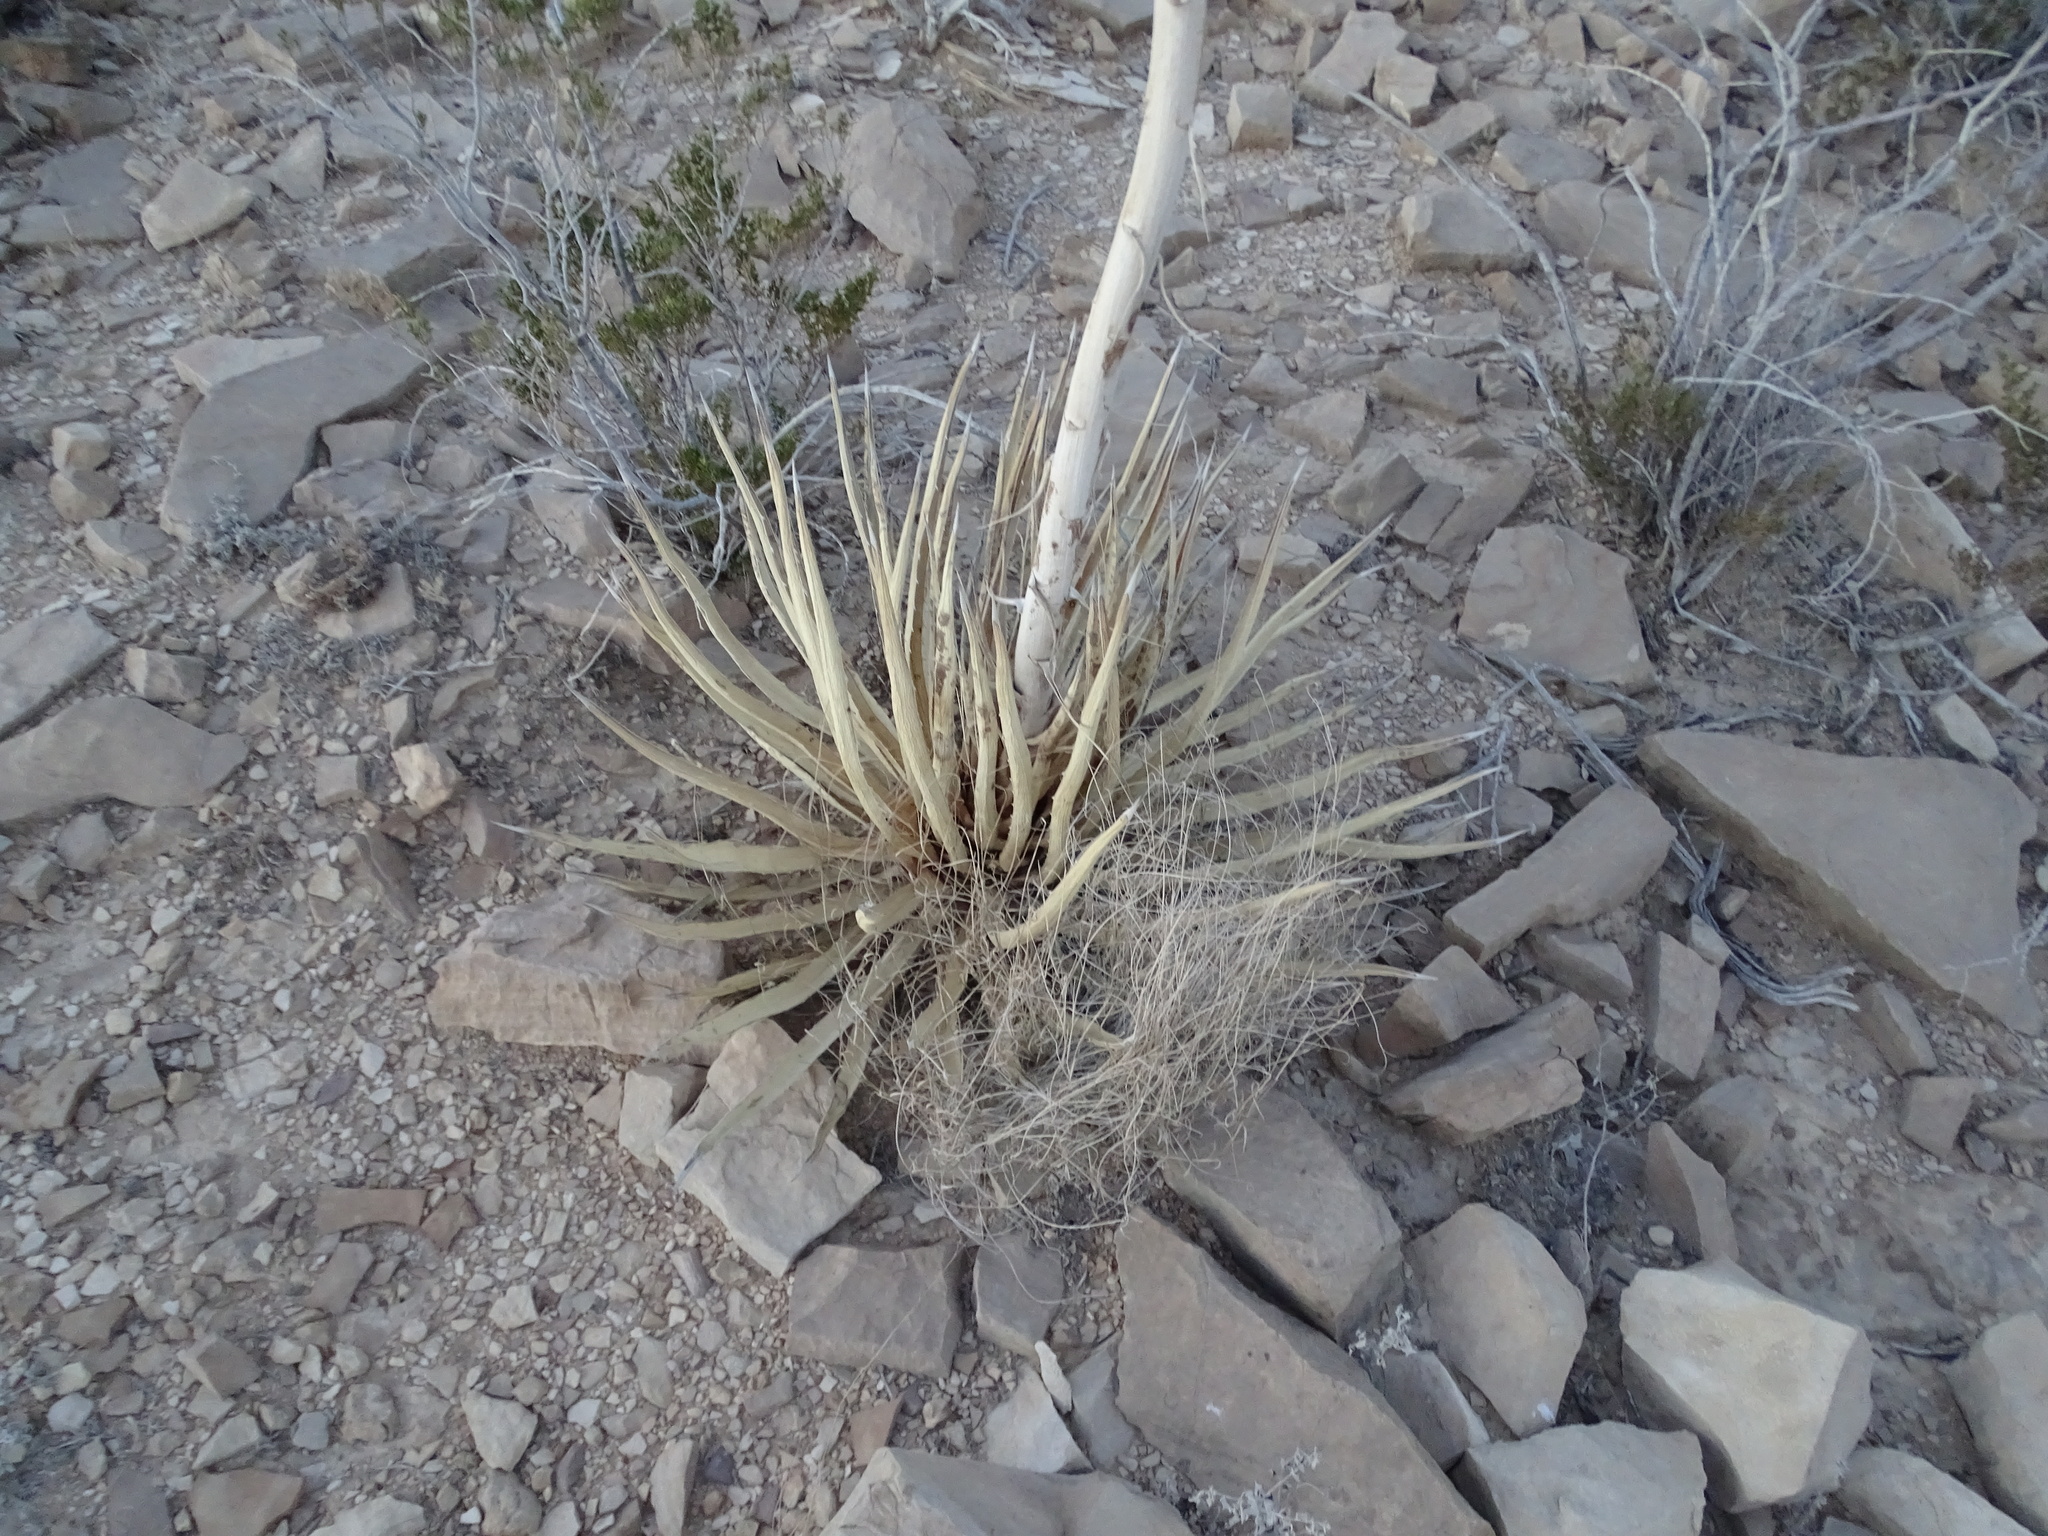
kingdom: Plantae
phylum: Tracheophyta
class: Liliopsida
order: Asparagales
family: Asparagaceae
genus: Agave
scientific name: Agave lechuguilla
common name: Lecheguilla agave
